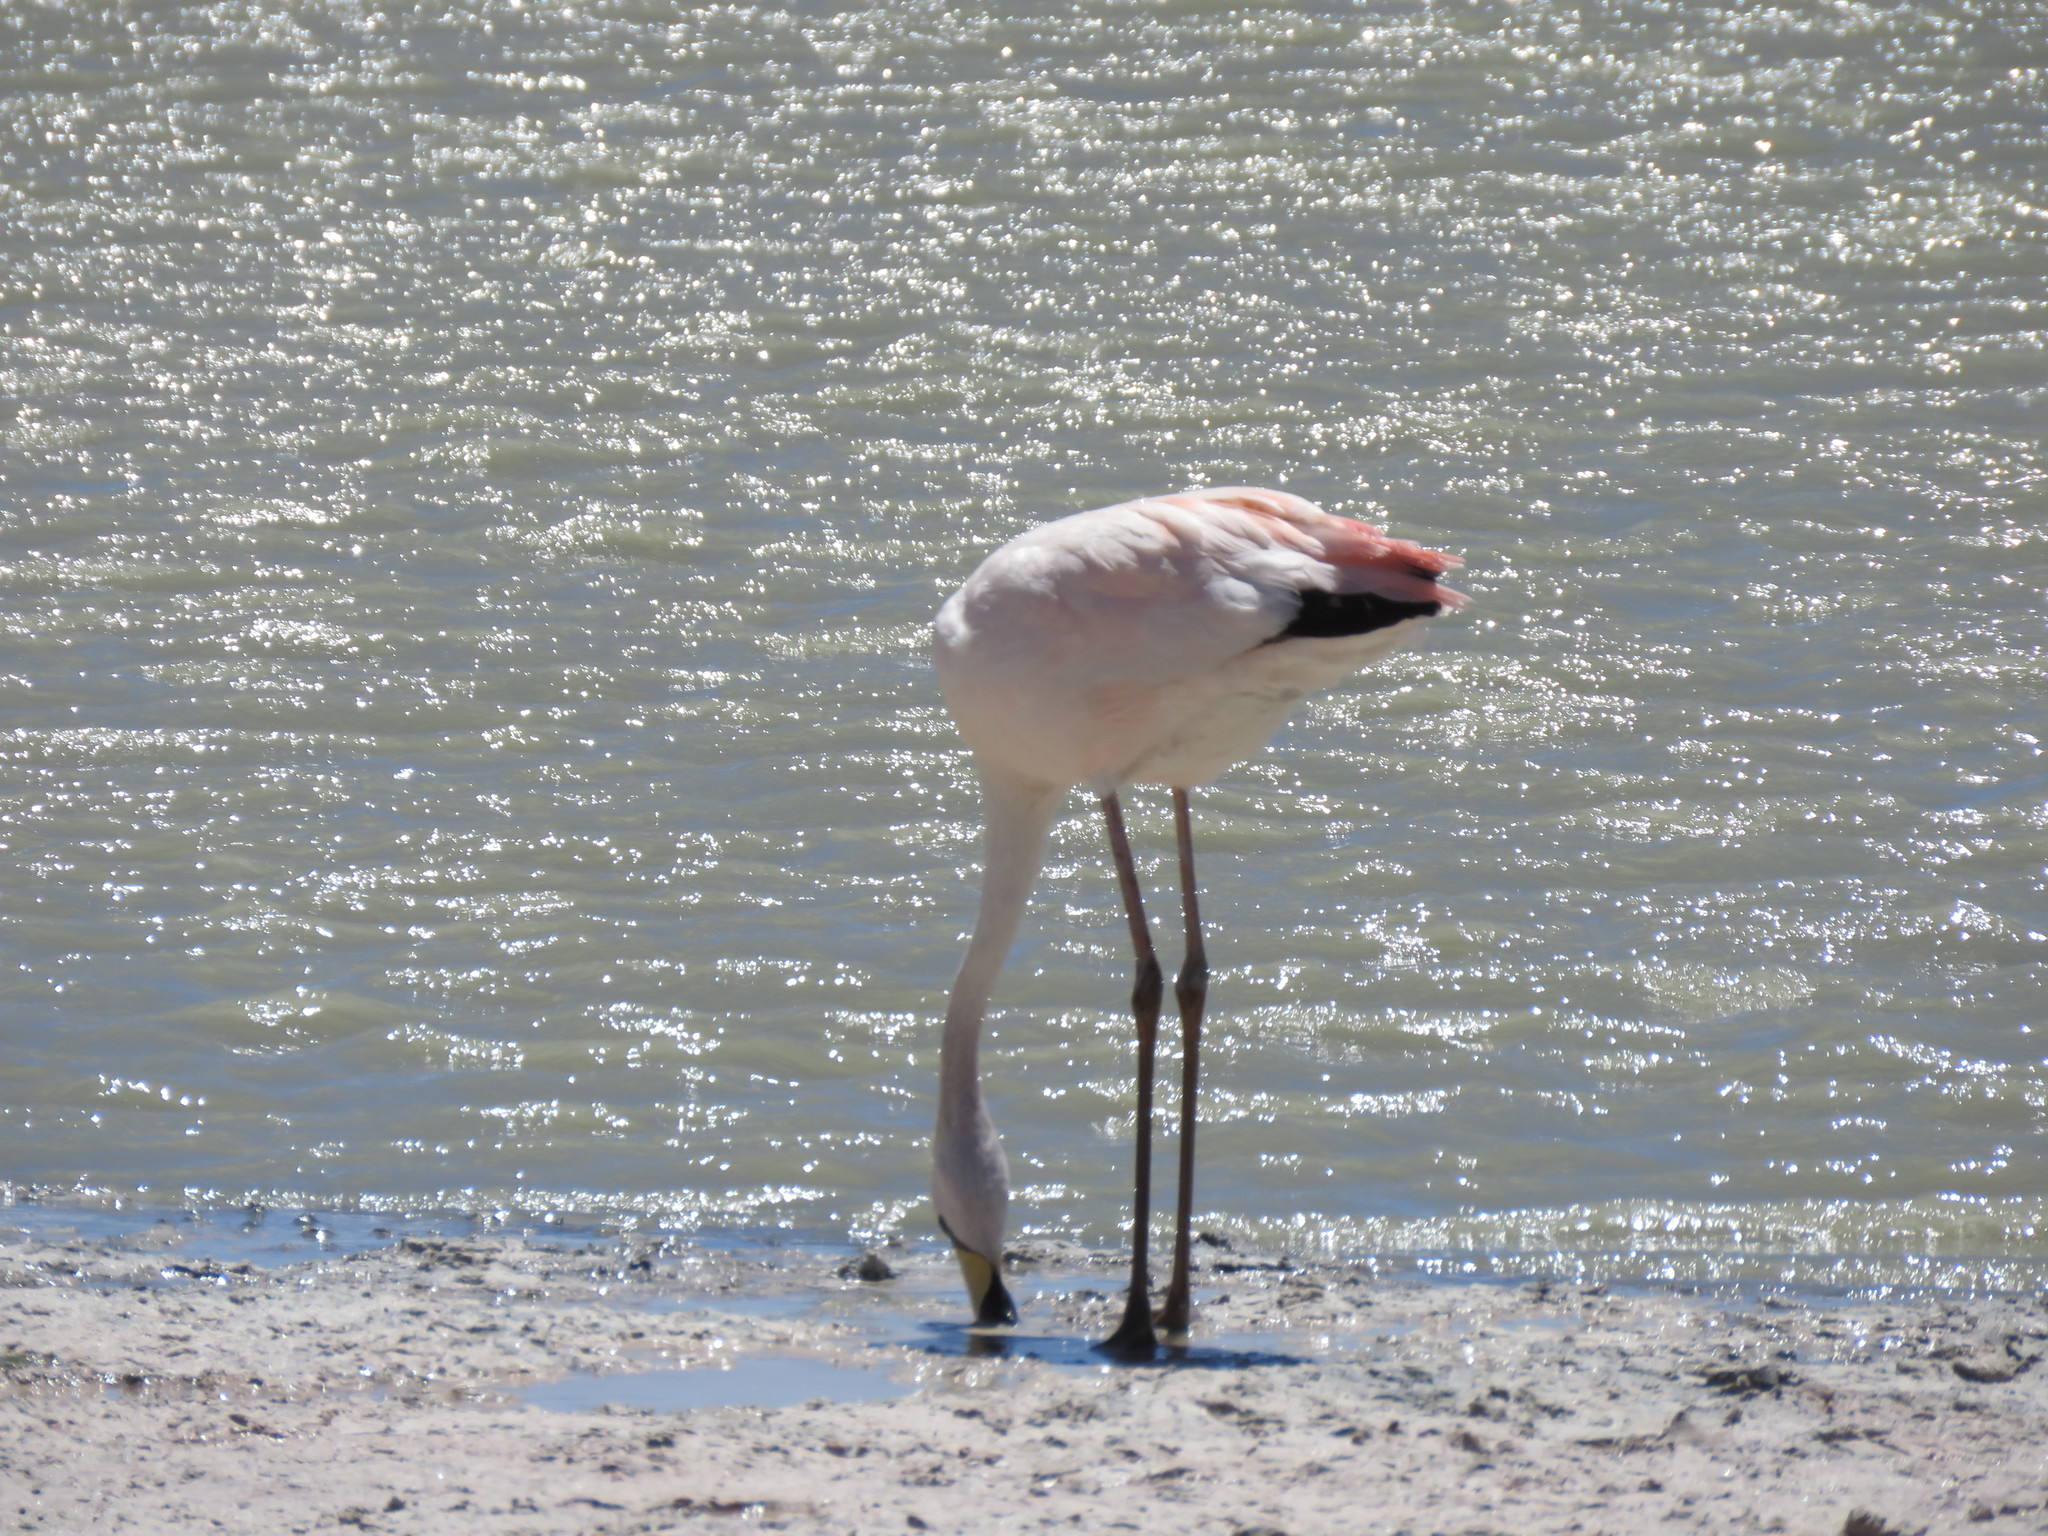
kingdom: Animalia
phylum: Chordata
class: Aves
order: Phoenicopteriformes
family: Phoenicopteridae
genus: Phoenicoparrus
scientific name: Phoenicoparrus jamesi
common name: James's flamingo
